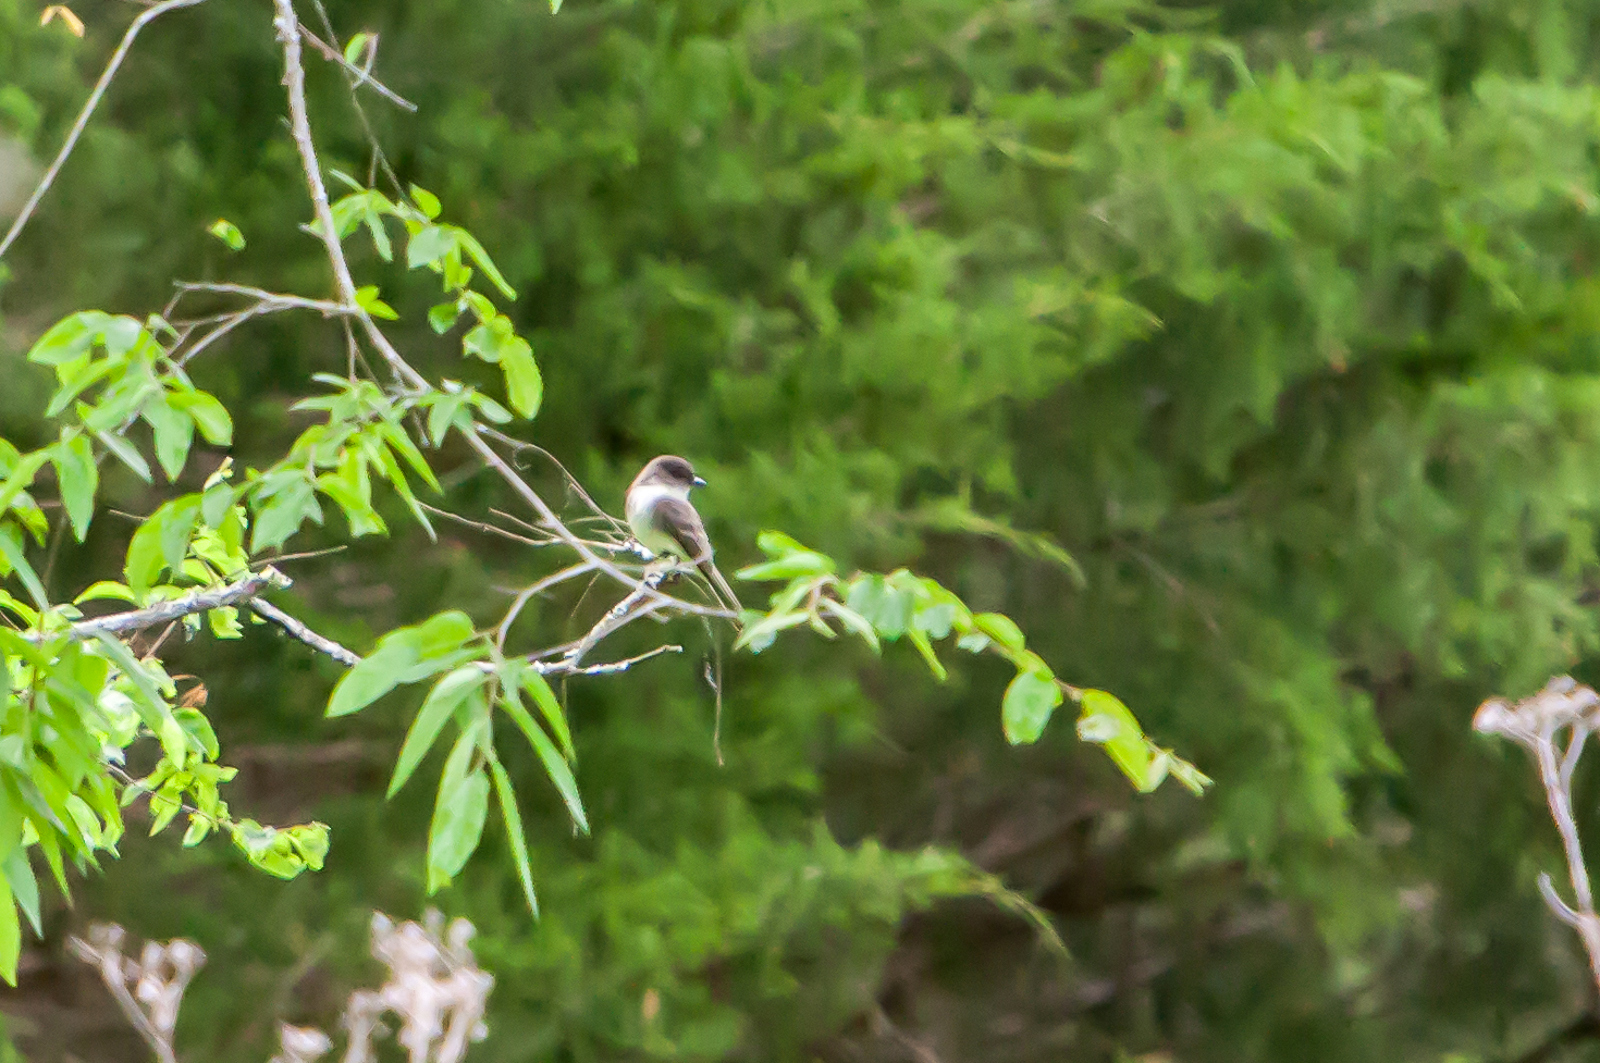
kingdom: Animalia
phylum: Chordata
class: Aves
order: Passeriformes
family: Tyrannidae
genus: Sayornis
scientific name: Sayornis phoebe
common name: Eastern phoebe
